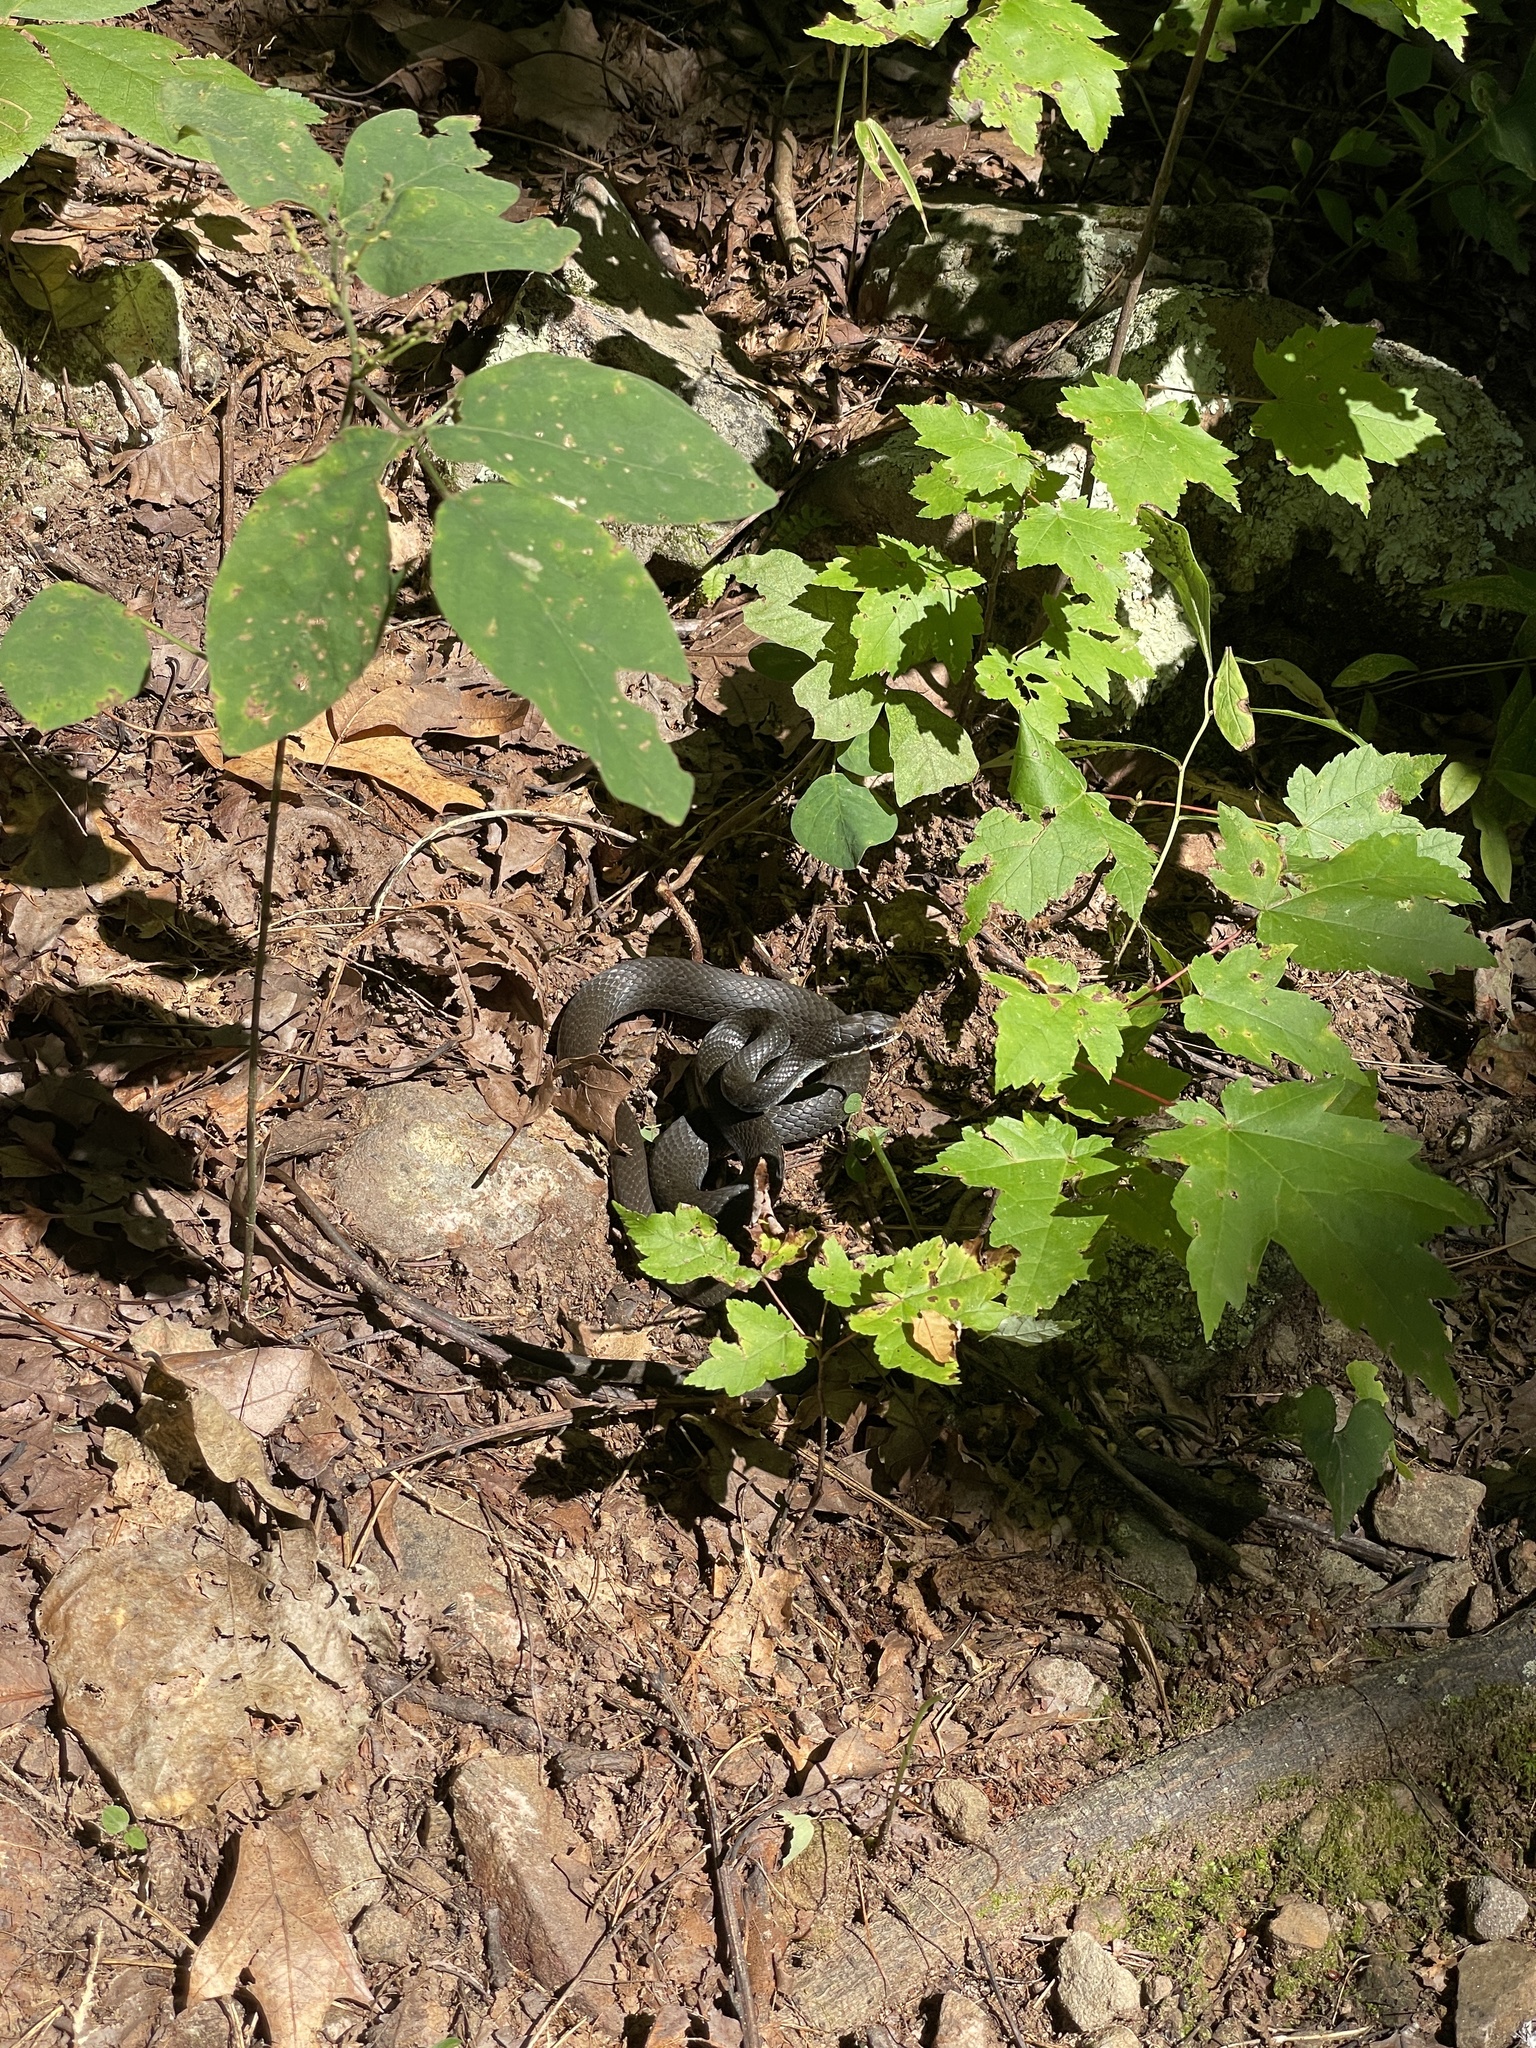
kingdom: Animalia
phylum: Chordata
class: Squamata
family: Colubridae
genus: Coluber
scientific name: Coluber constrictor
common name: Eastern racer
